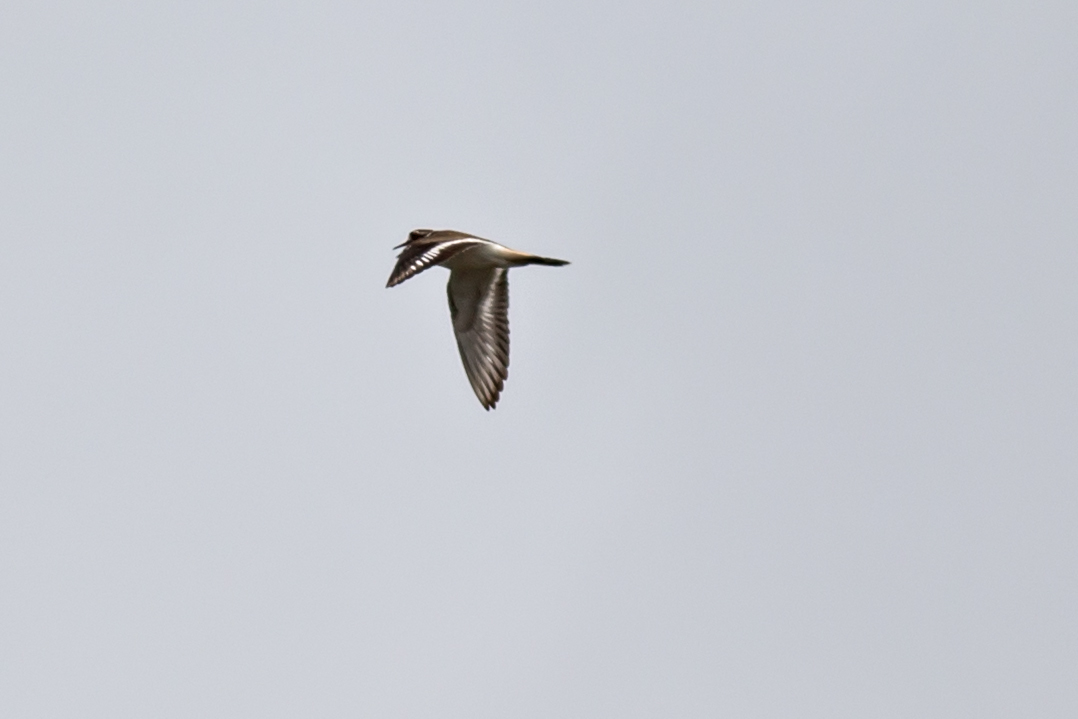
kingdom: Animalia
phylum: Chordata
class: Aves
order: Charadriiformes
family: Charadriidae
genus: Charadrius
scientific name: Charadrius vociferus
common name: Killdeer
